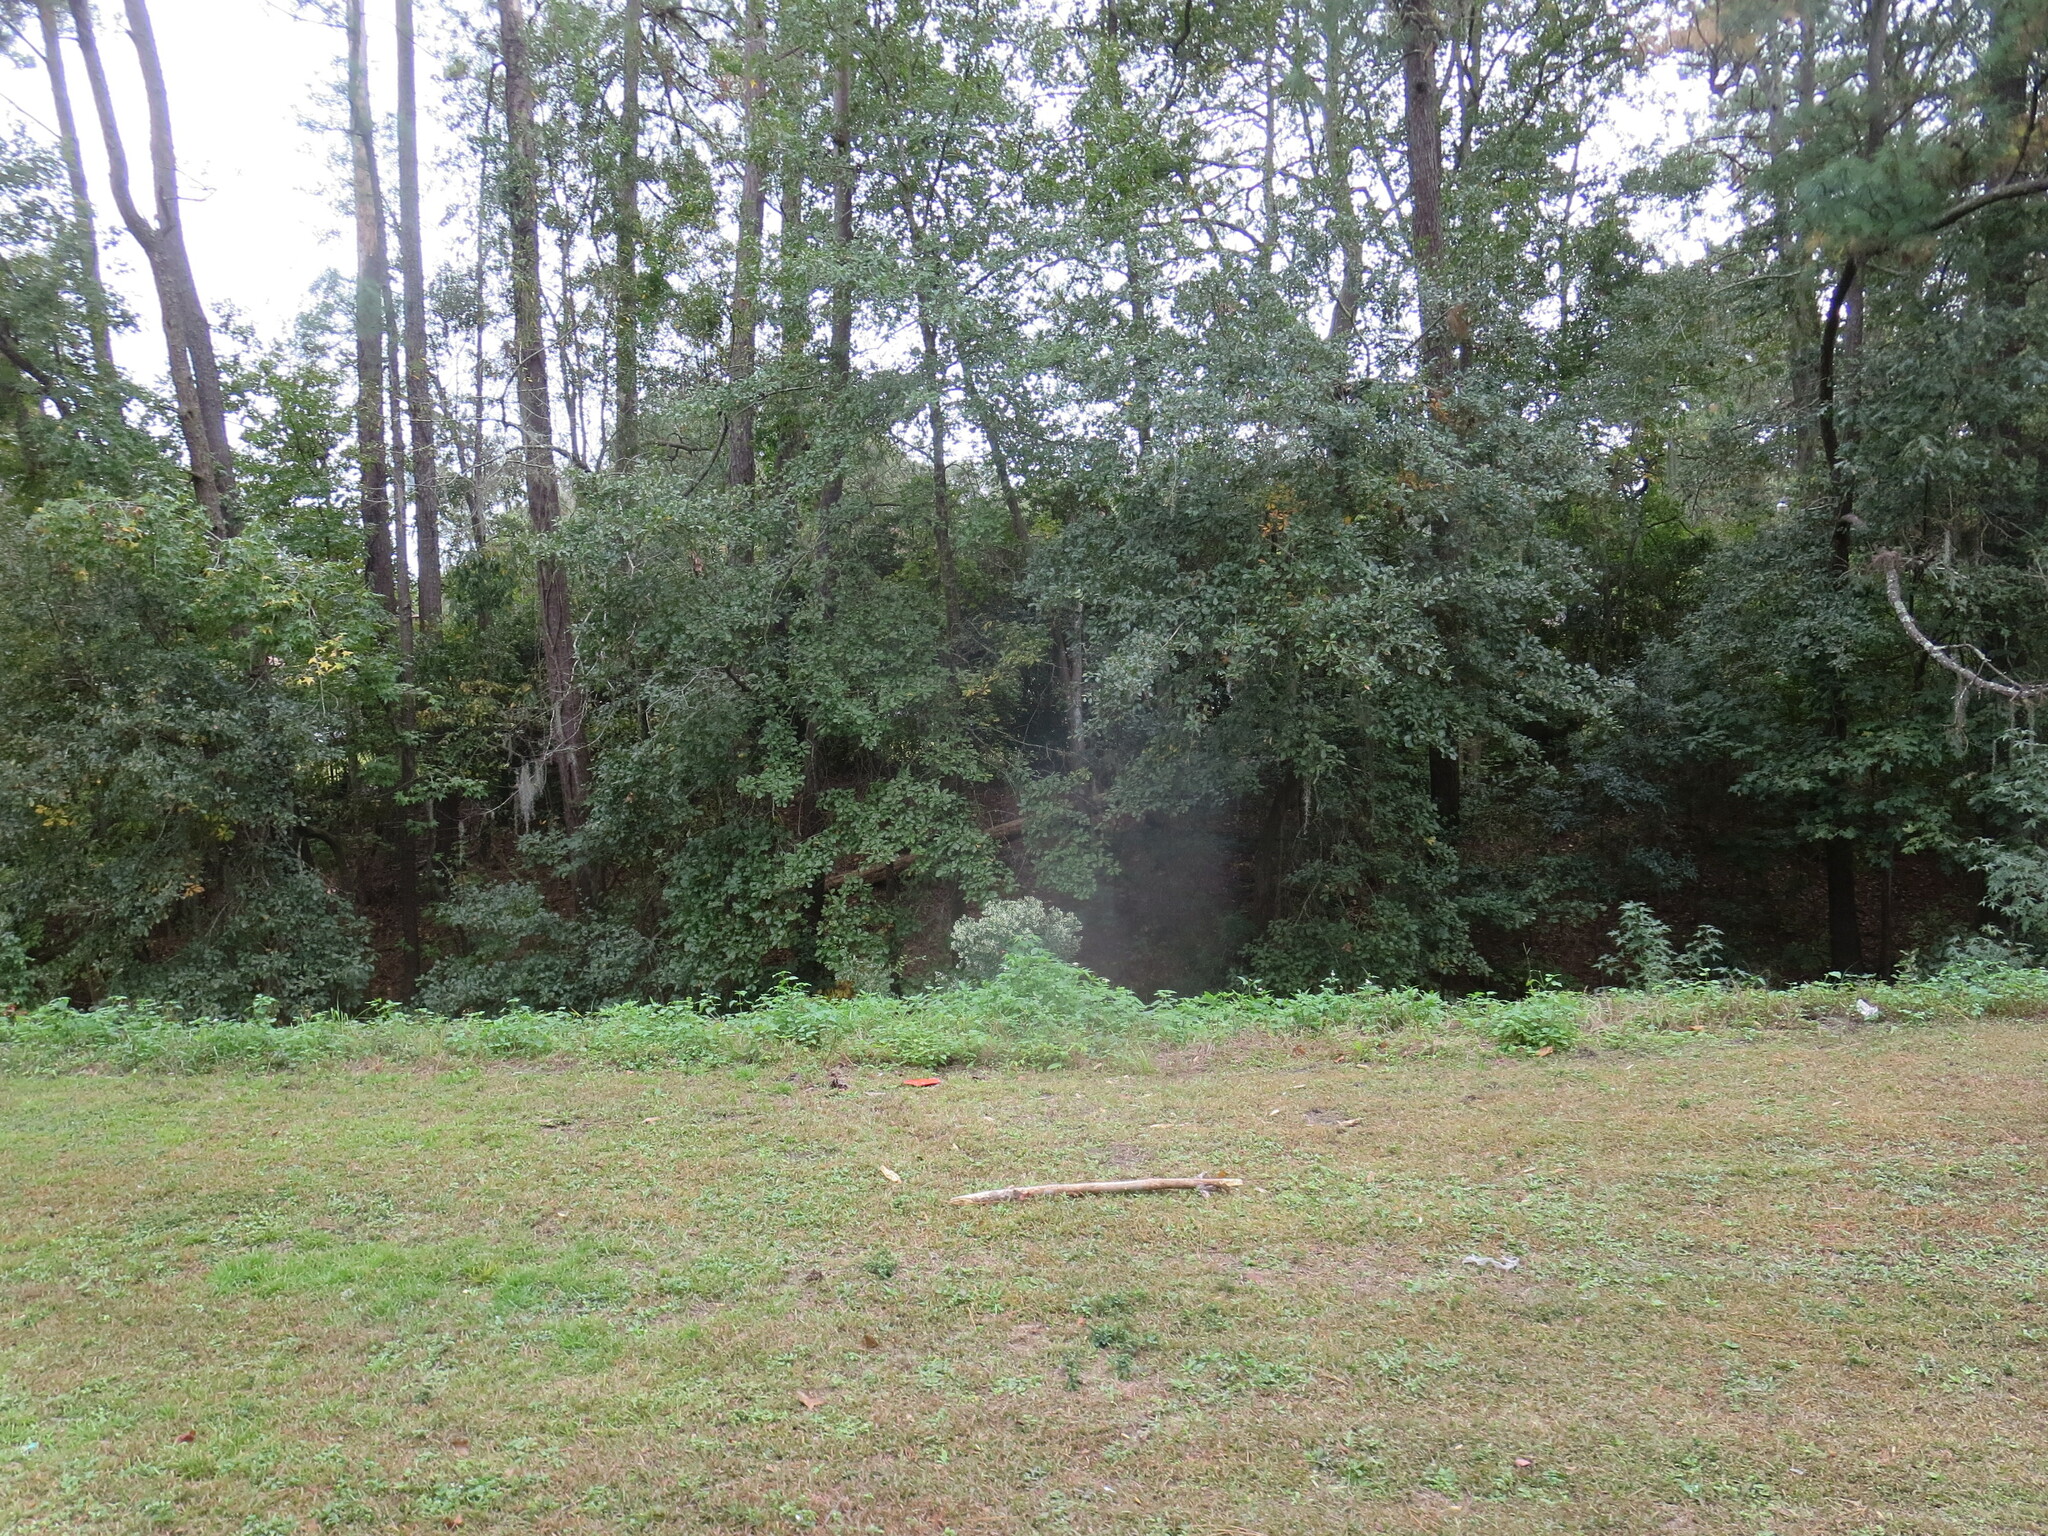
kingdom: Plantae
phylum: Tracheophyta
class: Magnoliopsida
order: Asterales
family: Asteraceae
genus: Baccharis
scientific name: Baccharis halimifolia
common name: Eastern baccharis
